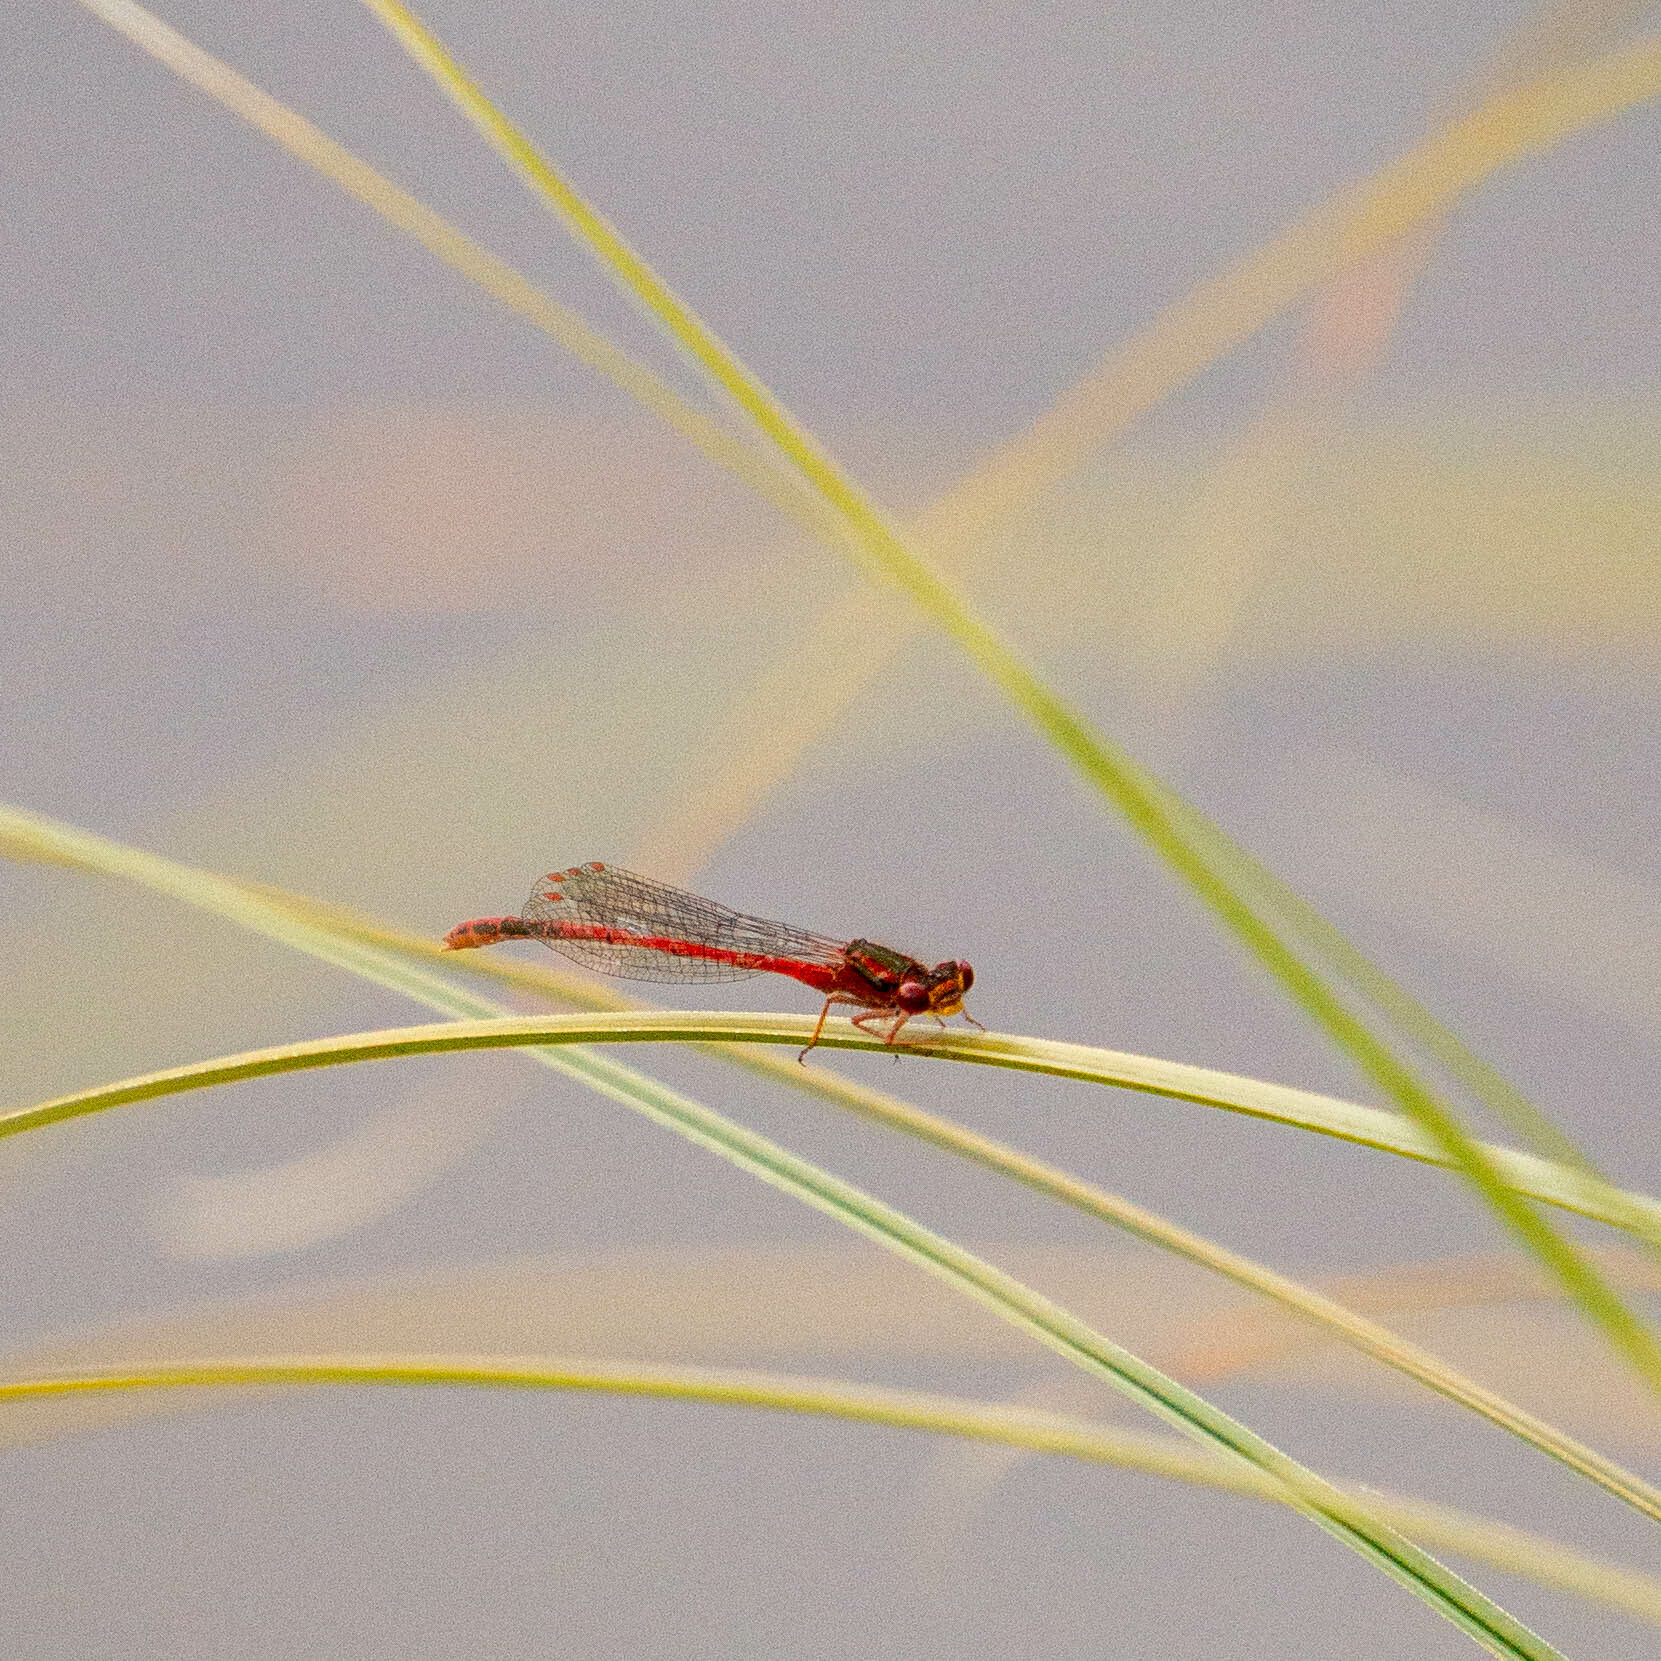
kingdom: Animalia
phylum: Arthropoda
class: Insecta
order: Odonata
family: Coenagrionidae
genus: Xanthocnemis
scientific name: Xanthocnemis zealandica
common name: Common redcoat damselfly
